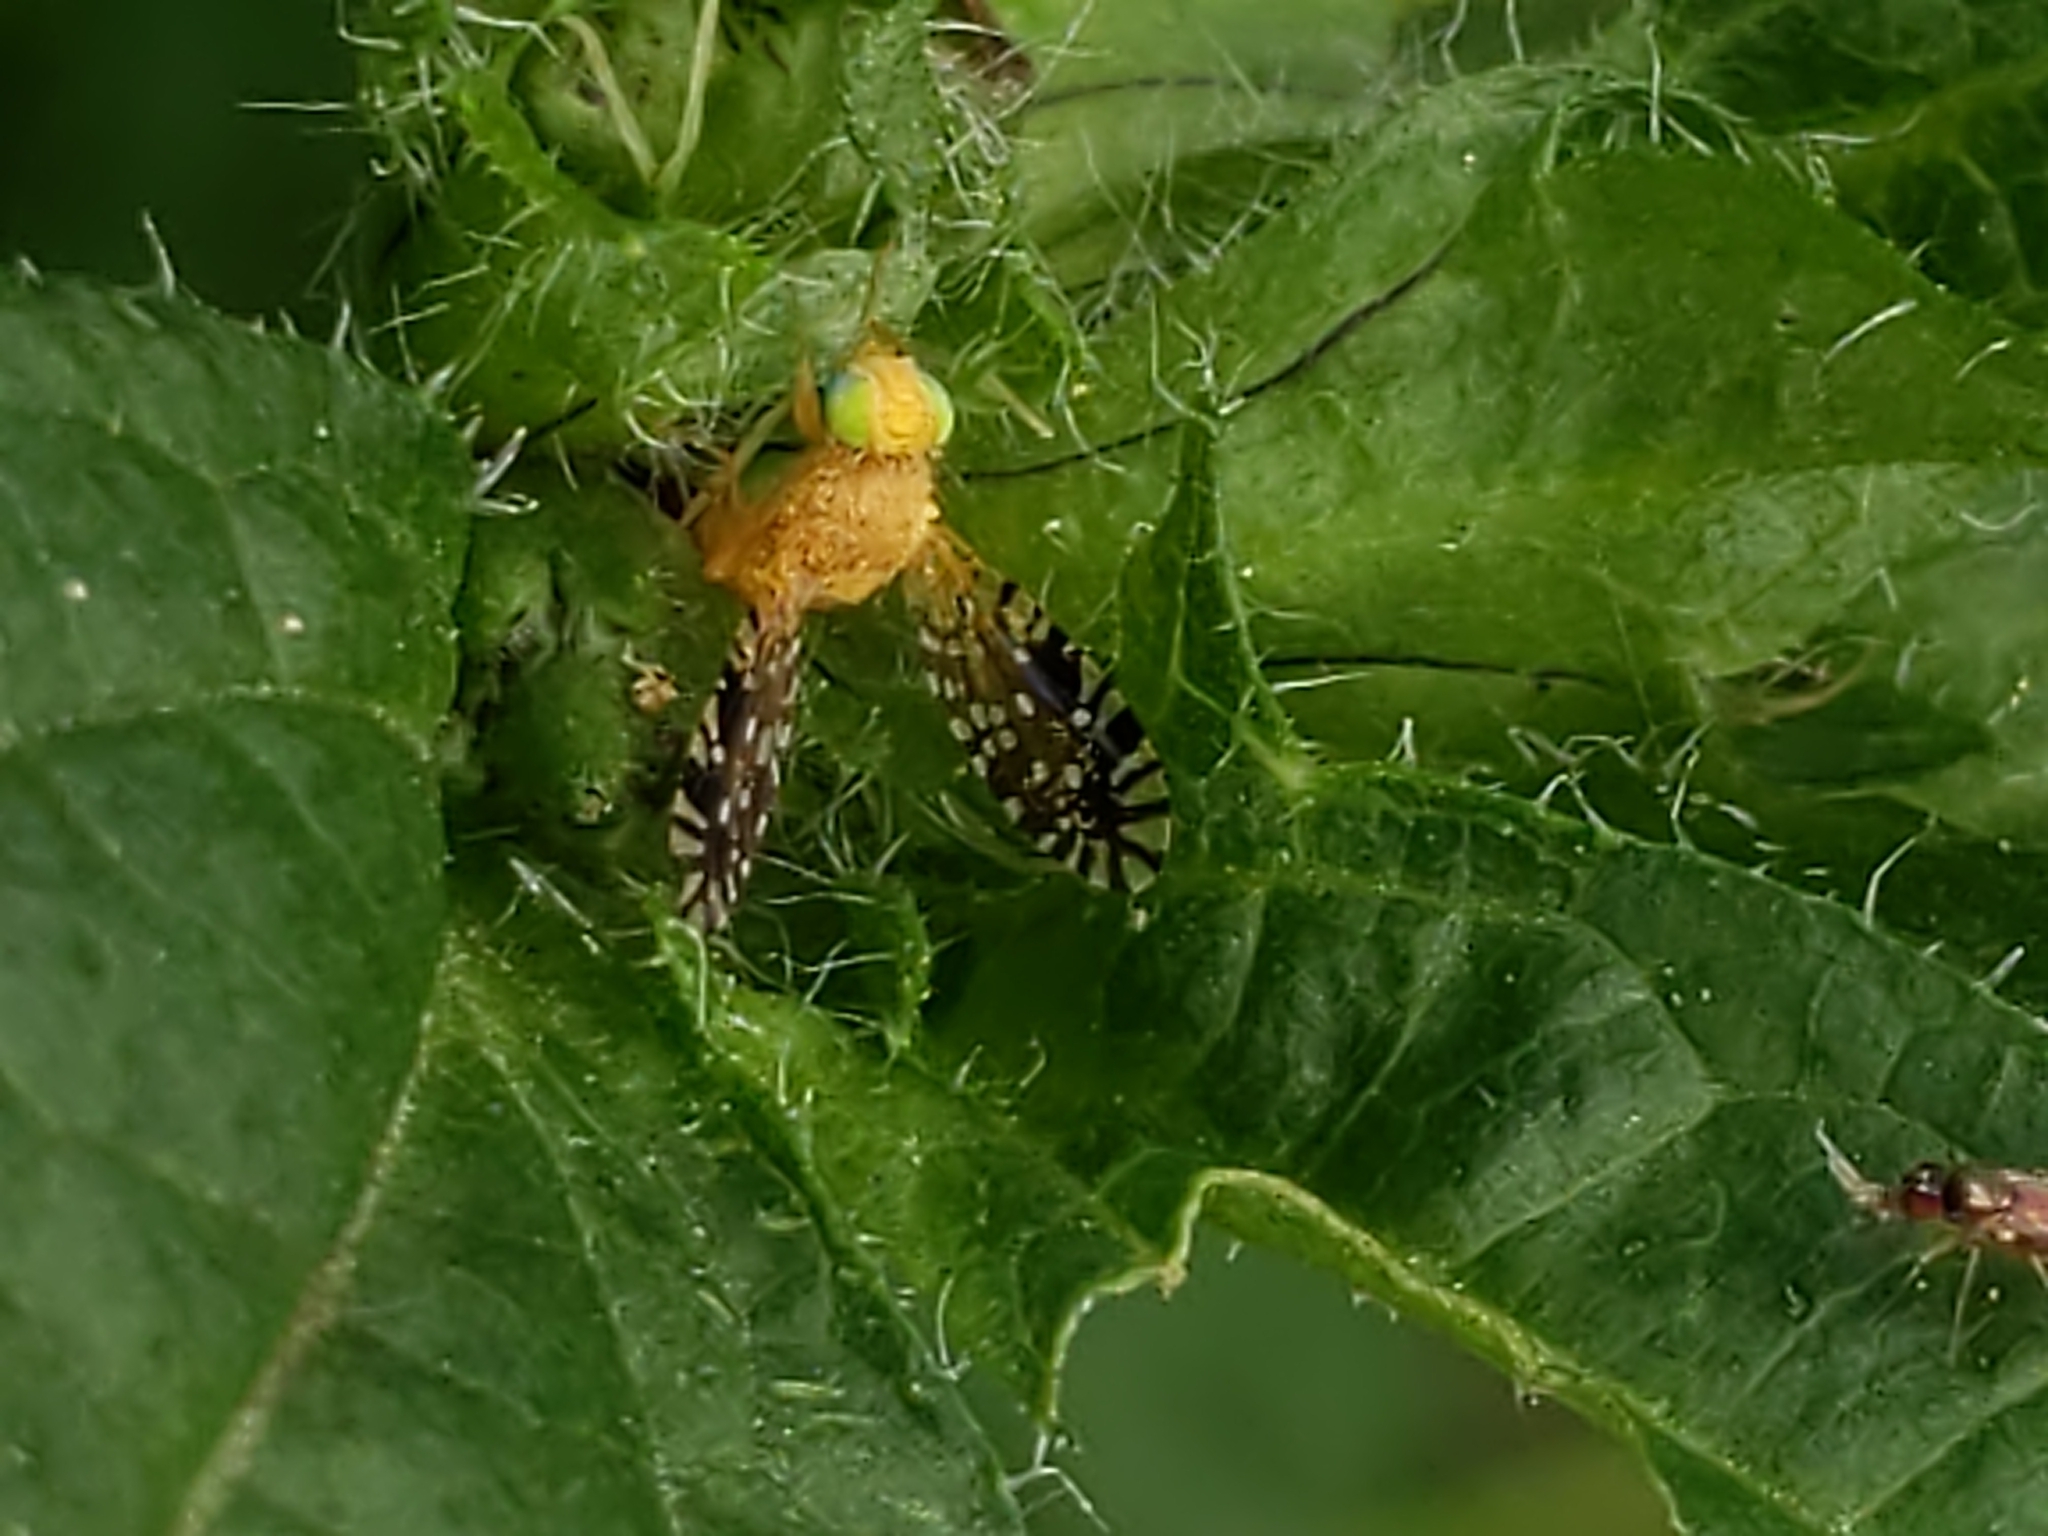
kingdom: Animalia
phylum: Arthropoda
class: Insecta
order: Diptera
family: Tephritidae
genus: Euaresta
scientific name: Euaresta festiva
